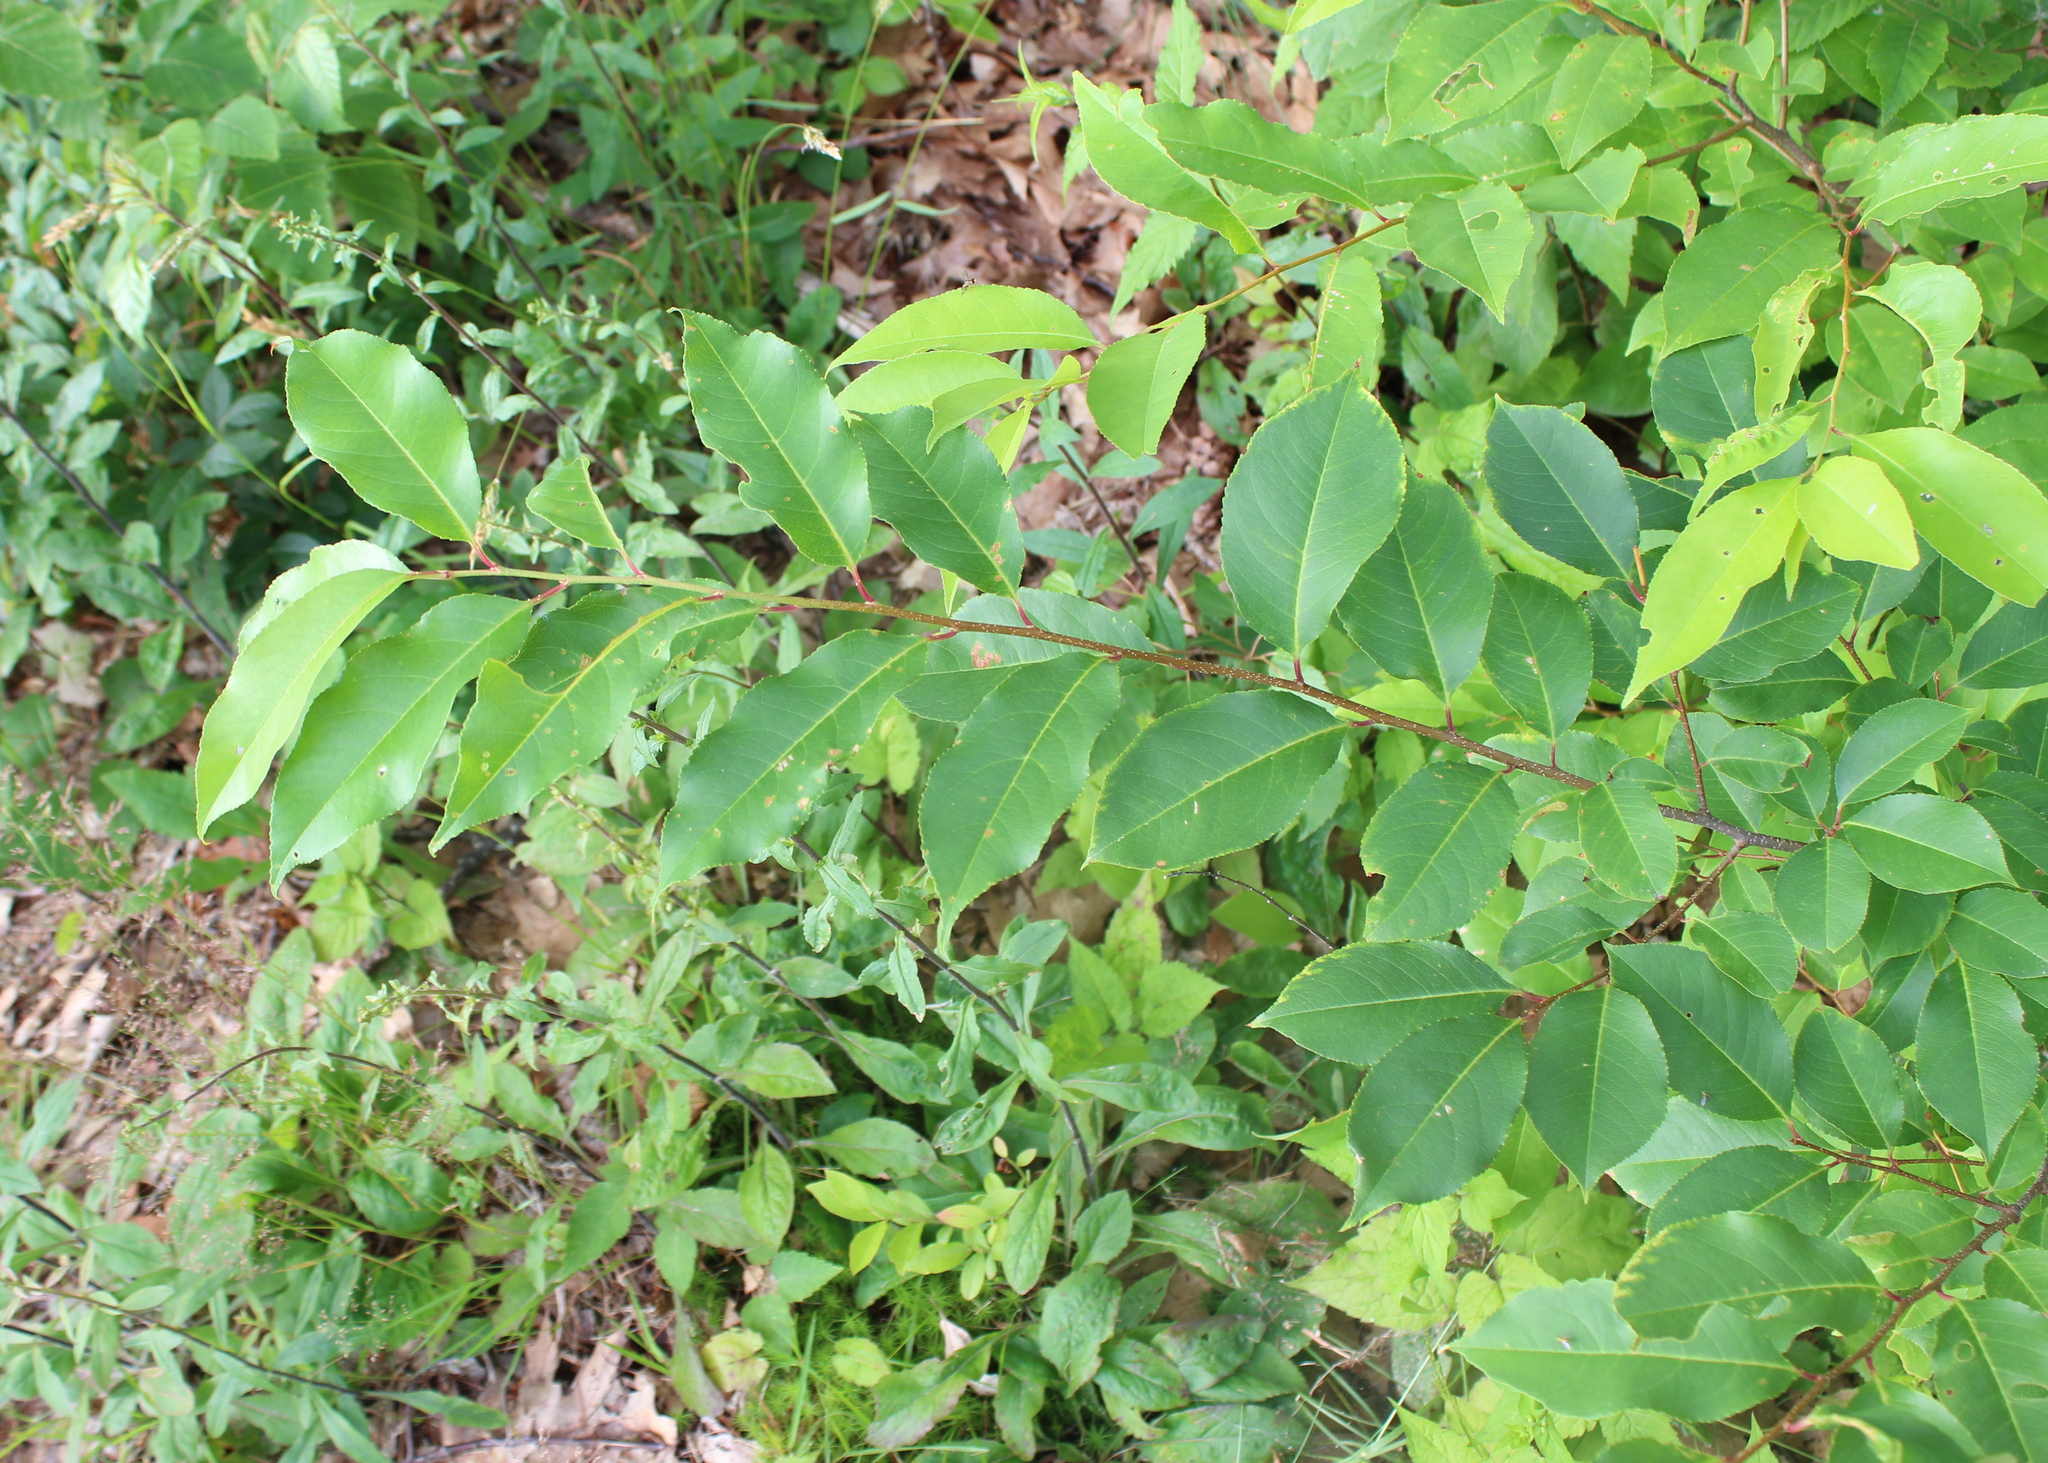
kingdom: Plantae
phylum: Tracheophyta
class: Magnoliopsida
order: Rosales
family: Rosaceae
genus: Prunus
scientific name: Prunus serotina
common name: Black cherry
